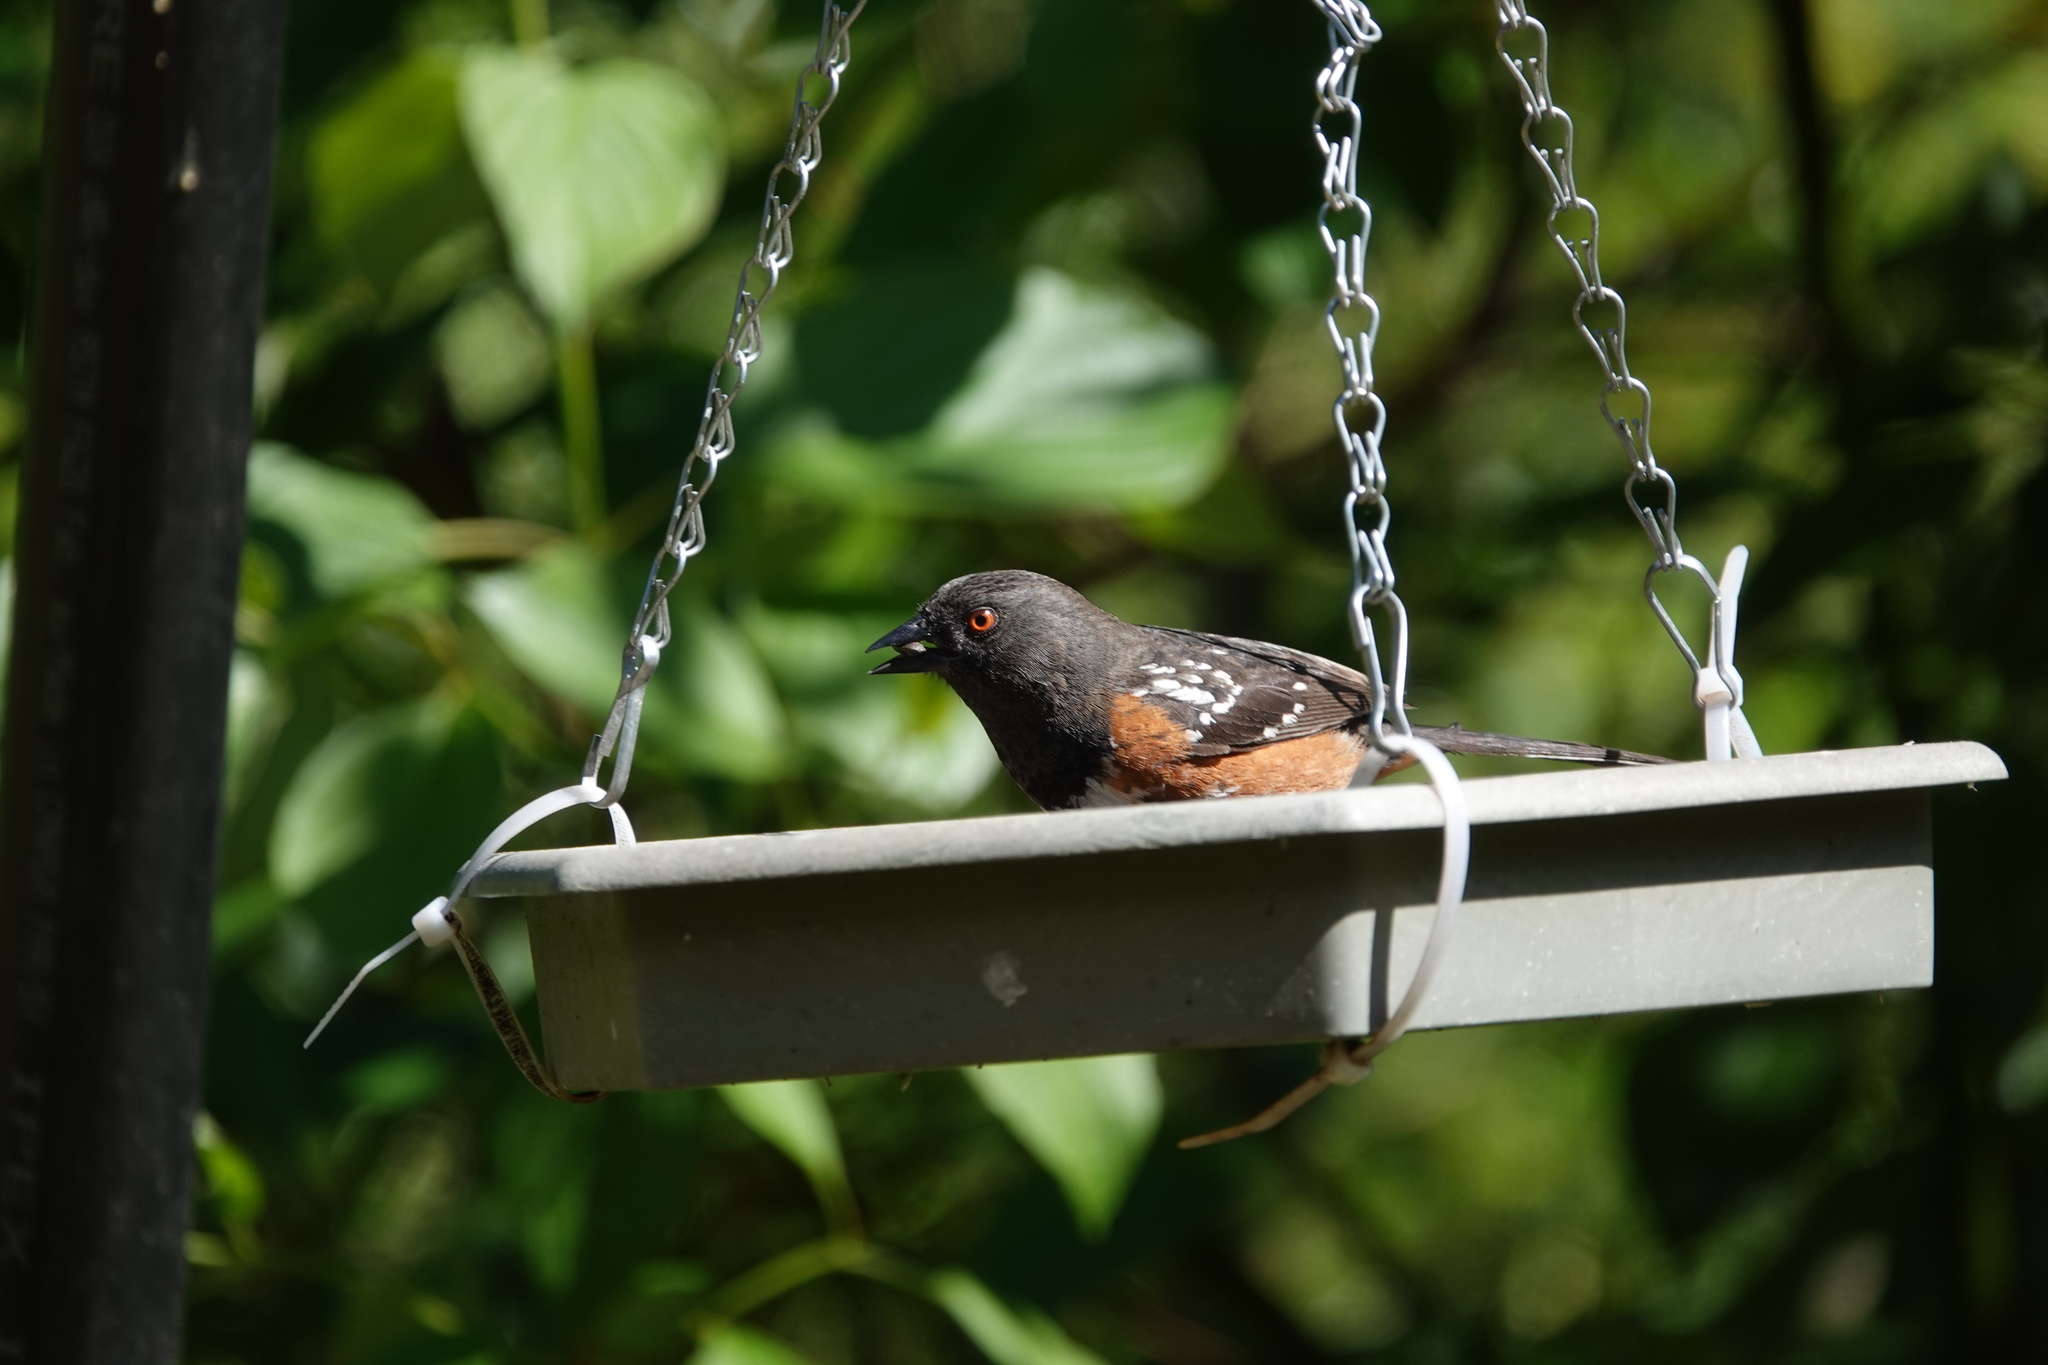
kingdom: Animalia
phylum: Chordata
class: Aves
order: Passeriformes
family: Passerellidae
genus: Pipilo
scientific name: Pipilo maculatus
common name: Spotted towhee
